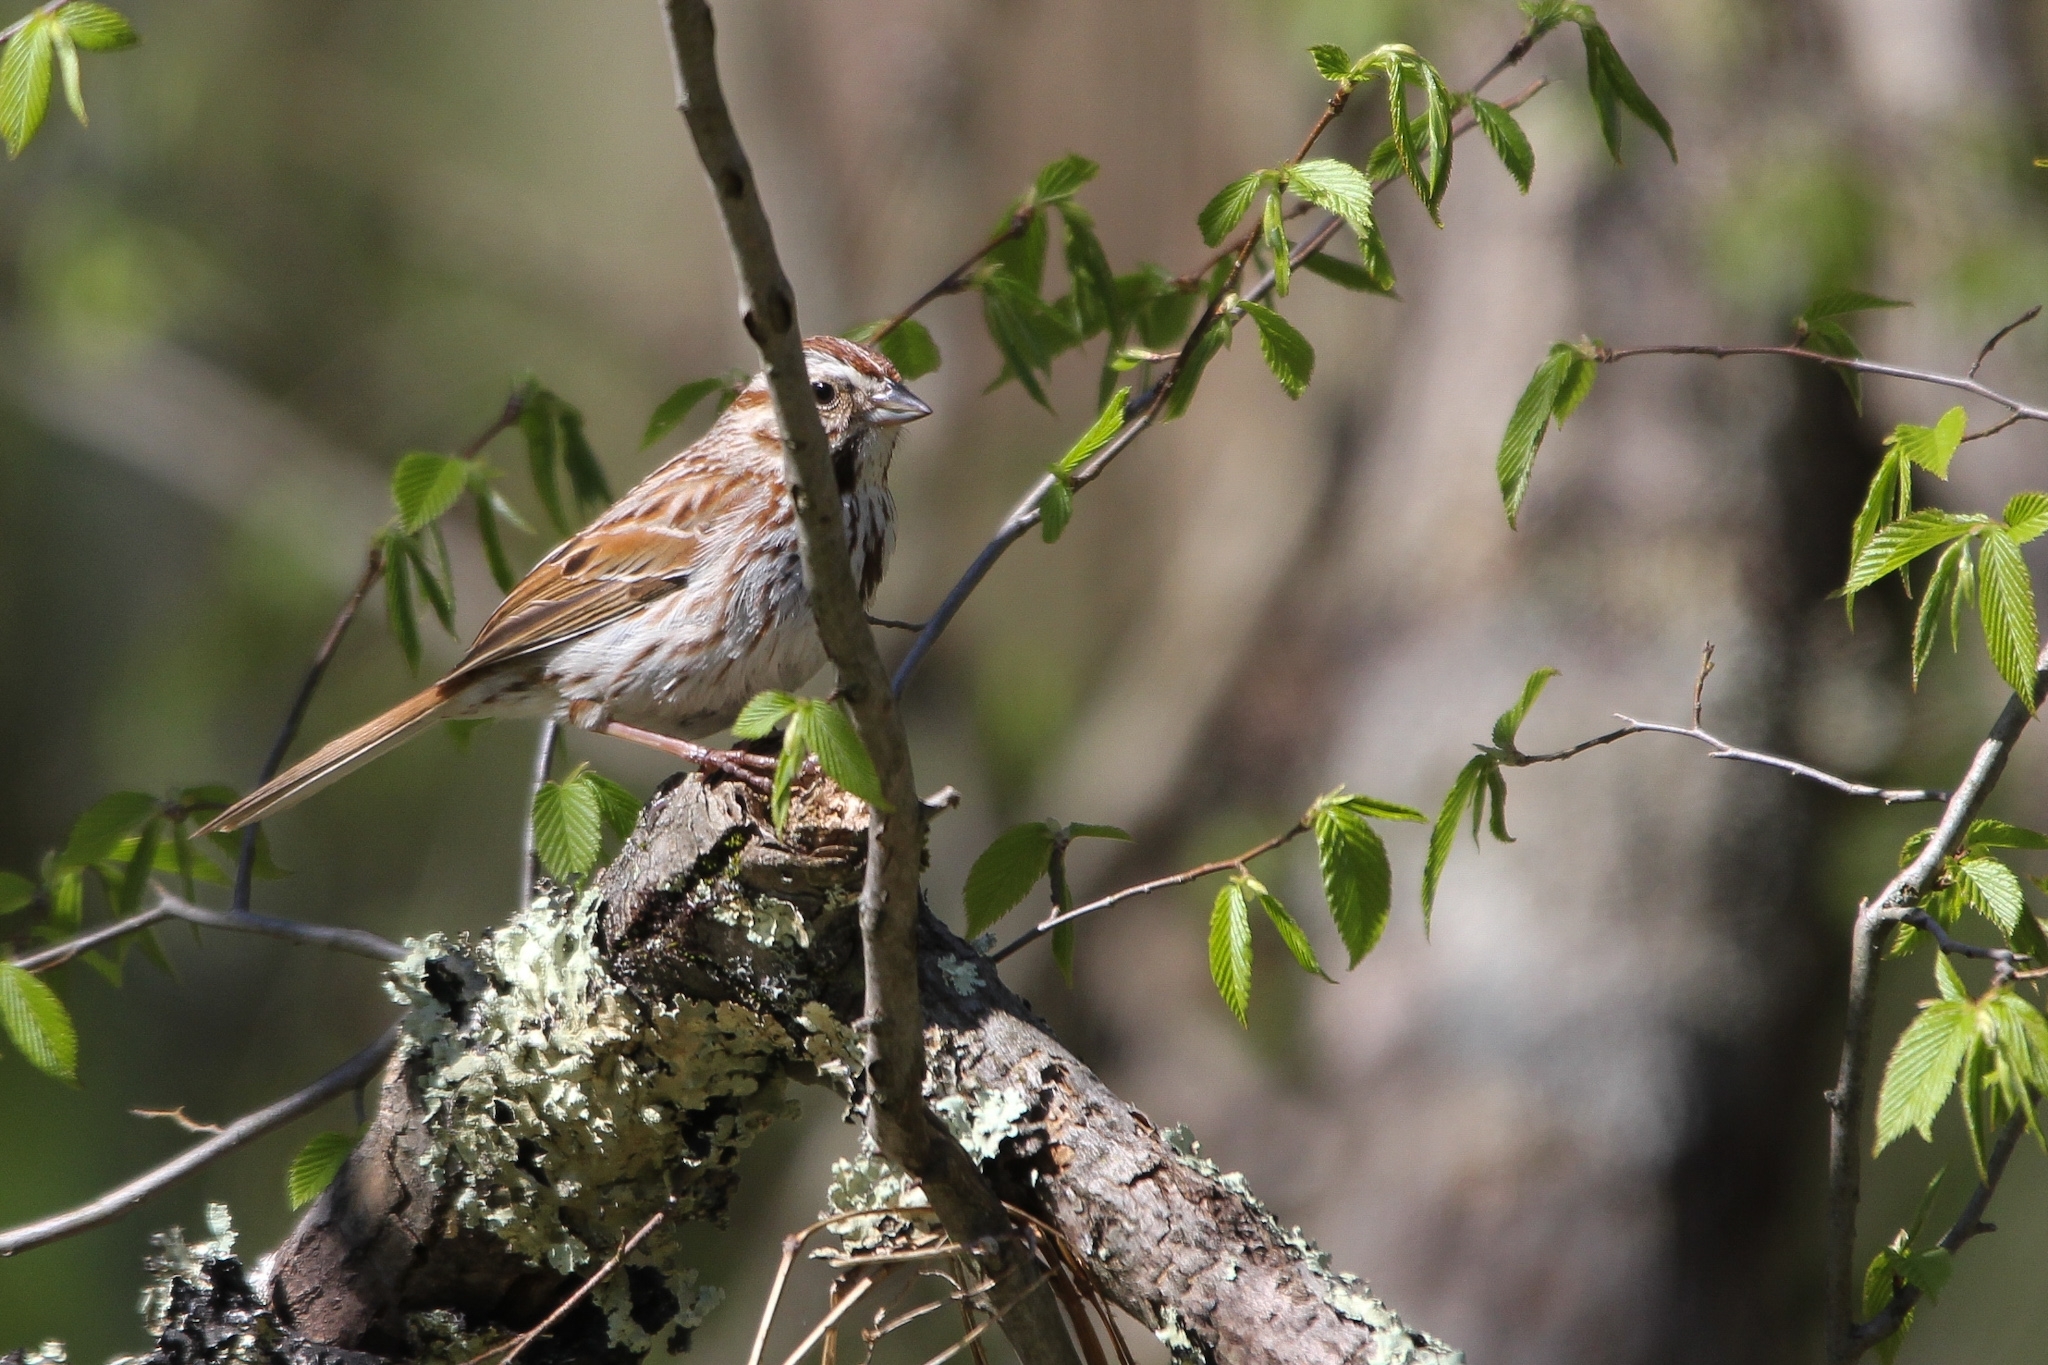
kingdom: Animalia
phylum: Chordata
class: Aves
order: Passeriformes
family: Passerellidae
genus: Melospiza
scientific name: Melospiza melodia
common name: Song sparrow
